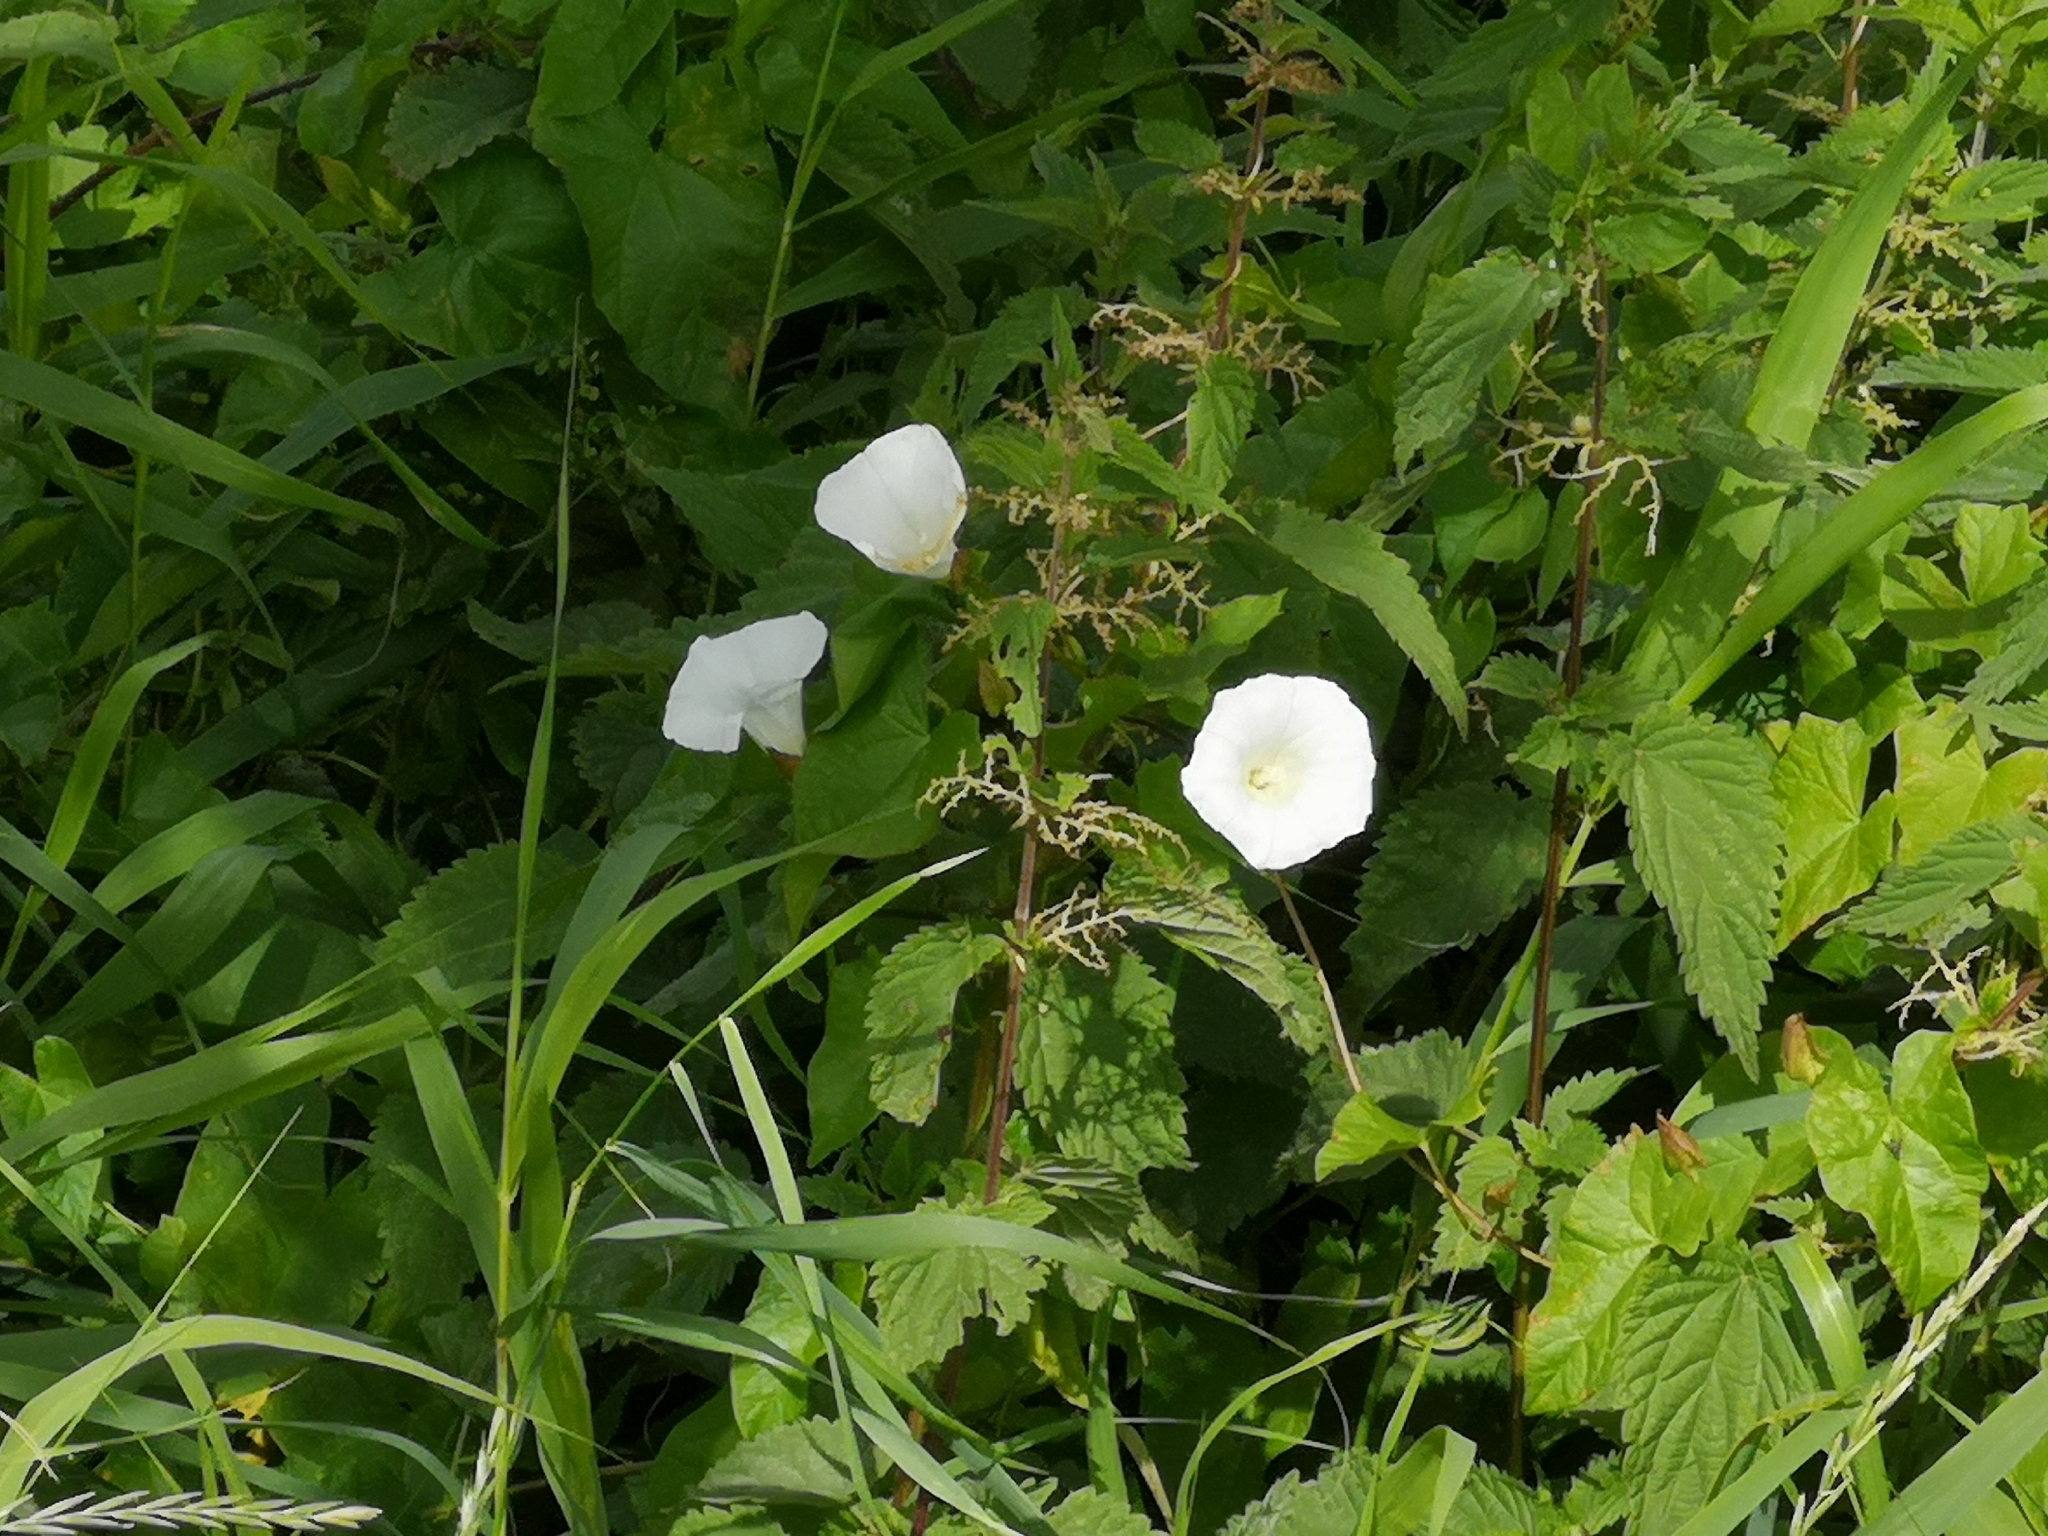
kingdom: Plantae
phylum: Tracheophyta
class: Magnoliopsida
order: Solanales
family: Convolvulaceae
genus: Calystegia
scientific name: Calystegia sepium
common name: Hedge bindweed
